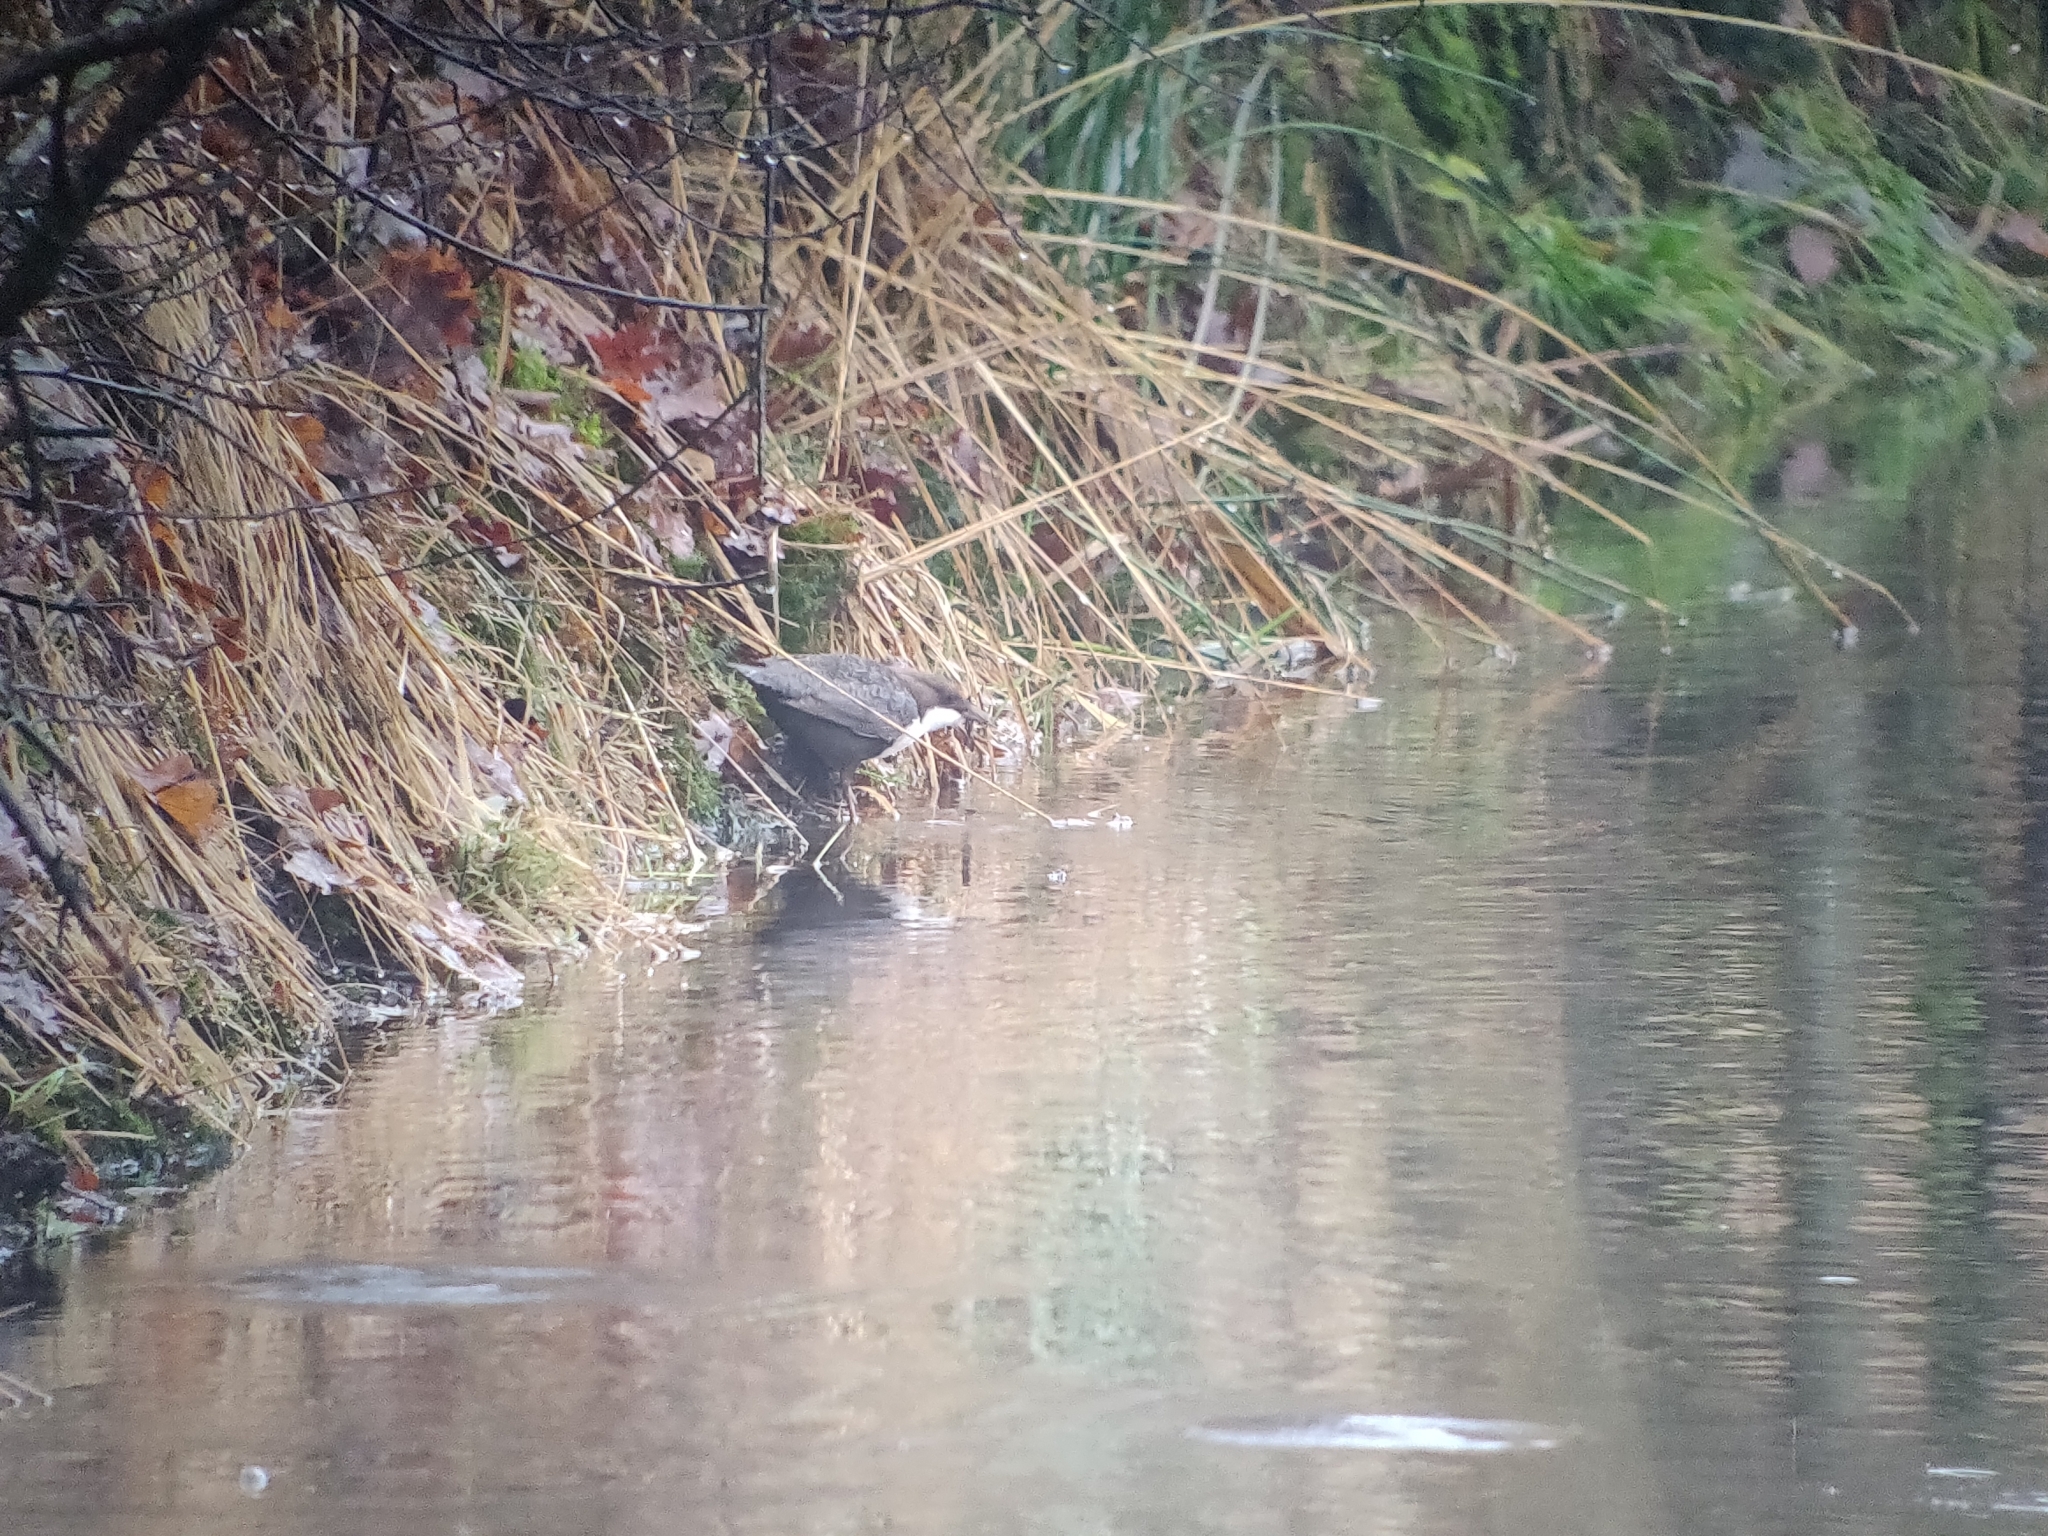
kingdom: Animalia
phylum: Chordata
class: Aves
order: Passeriformes
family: Cinclidae
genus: Cinclus
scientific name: Cinclus cinclus
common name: White-throated dipper
